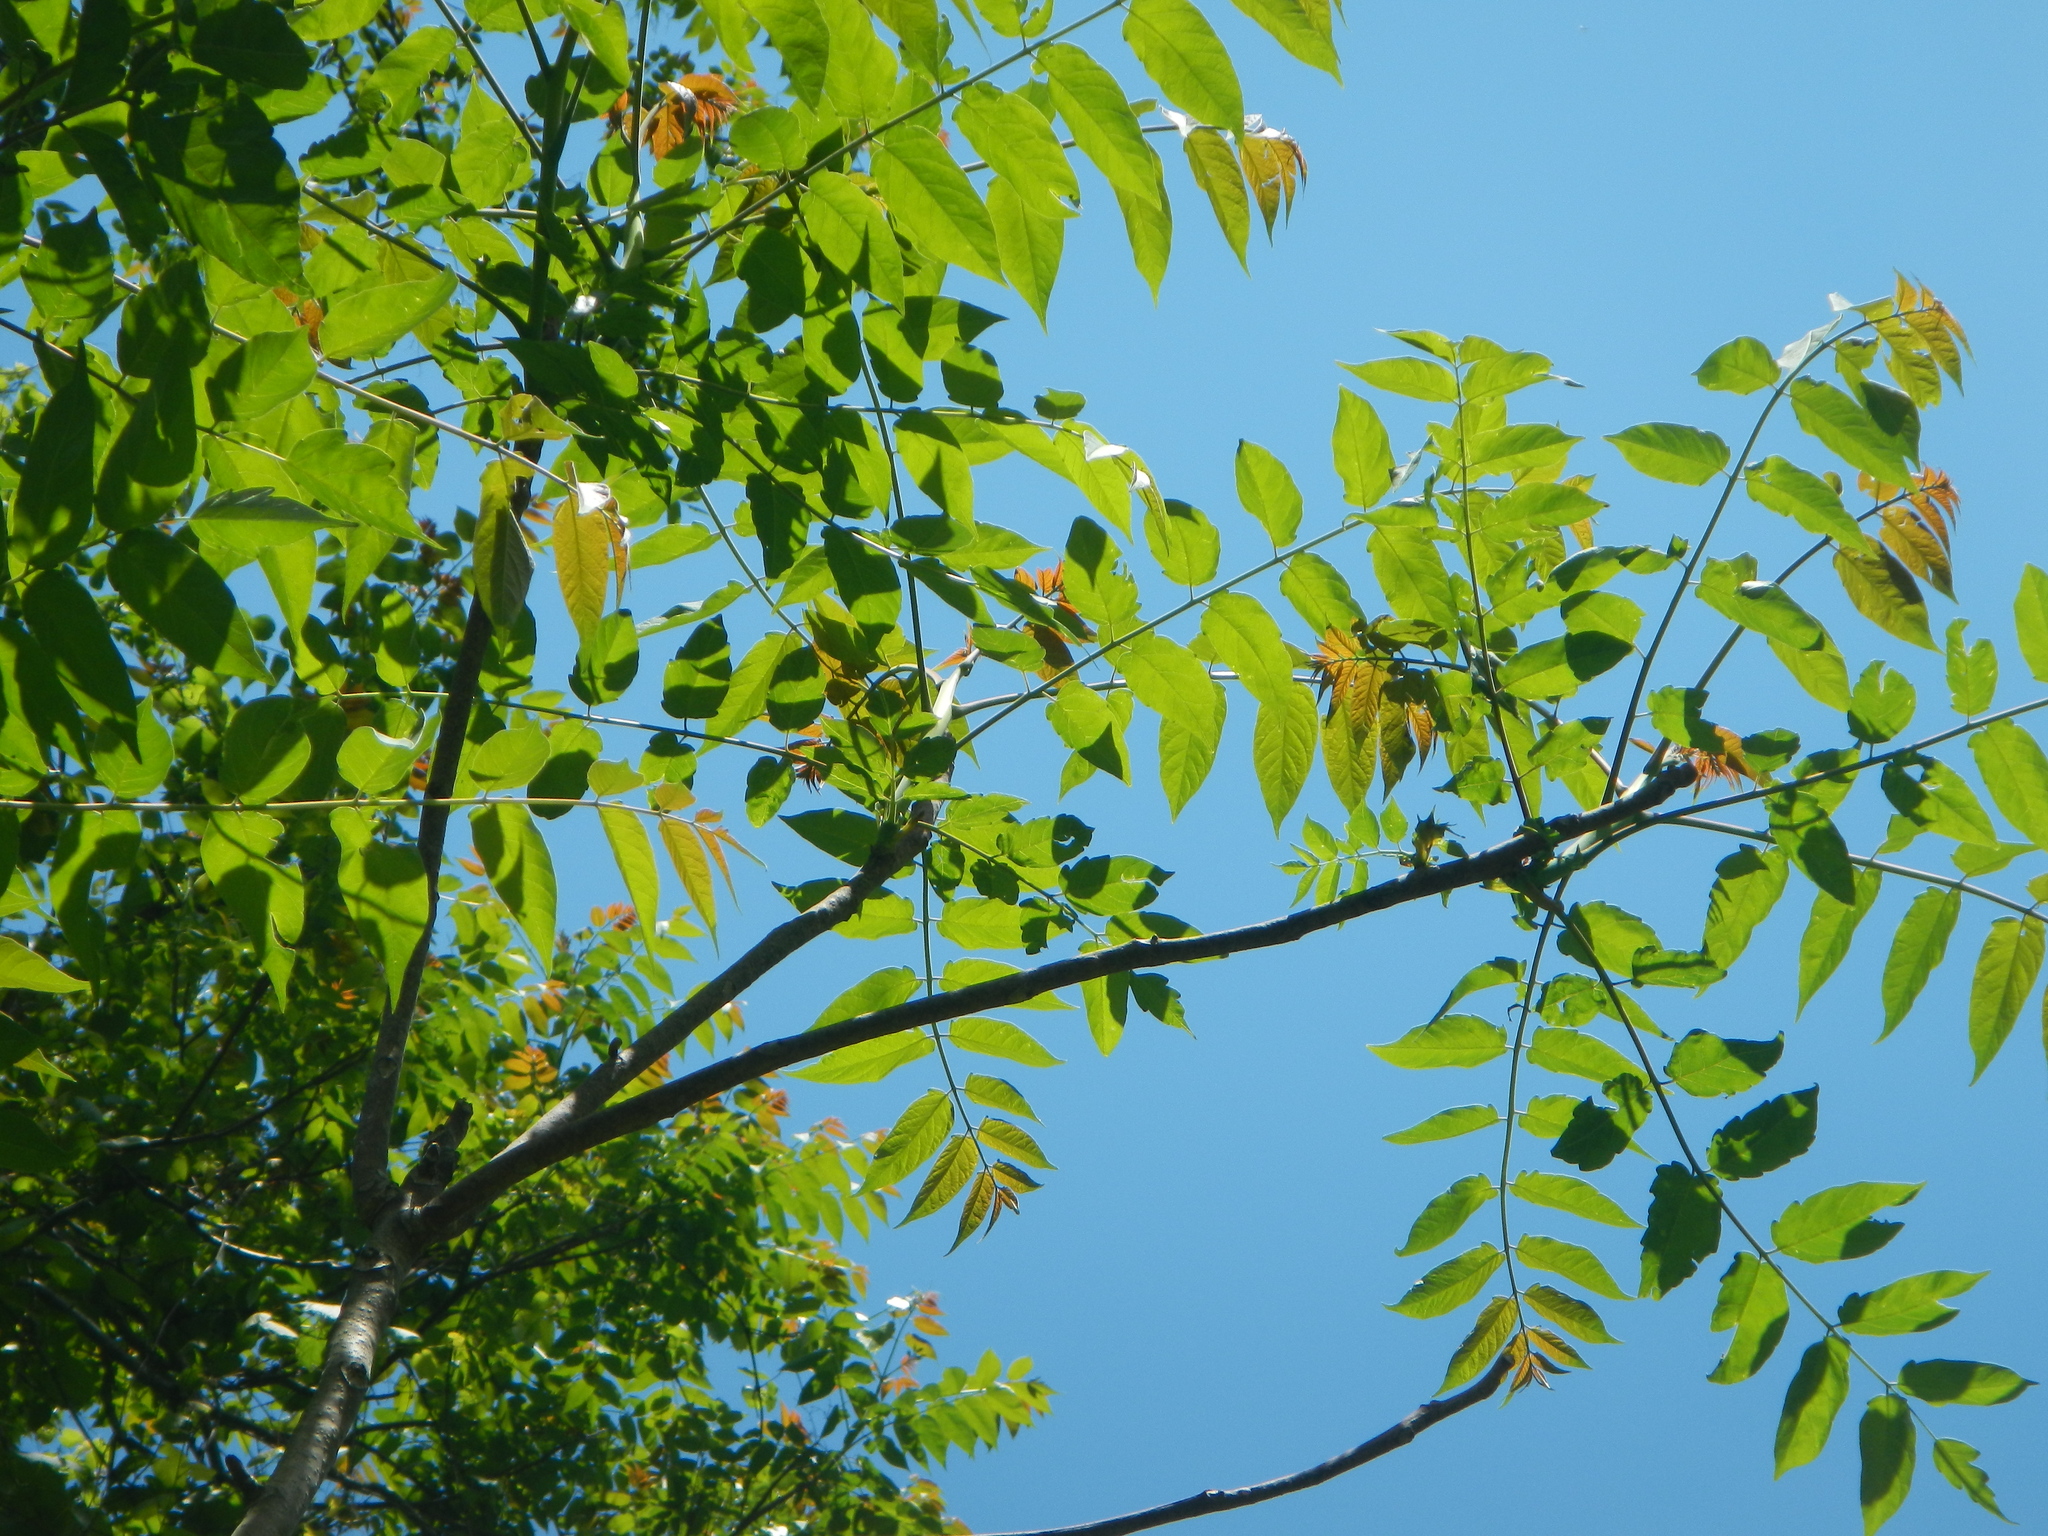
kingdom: Plantae
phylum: Tracheophyta
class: Magnoliopsida
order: Sapindales
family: Simaroubaceae
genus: Ailanthus
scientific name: Ailanthus altissima
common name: Tree-of-heaven
